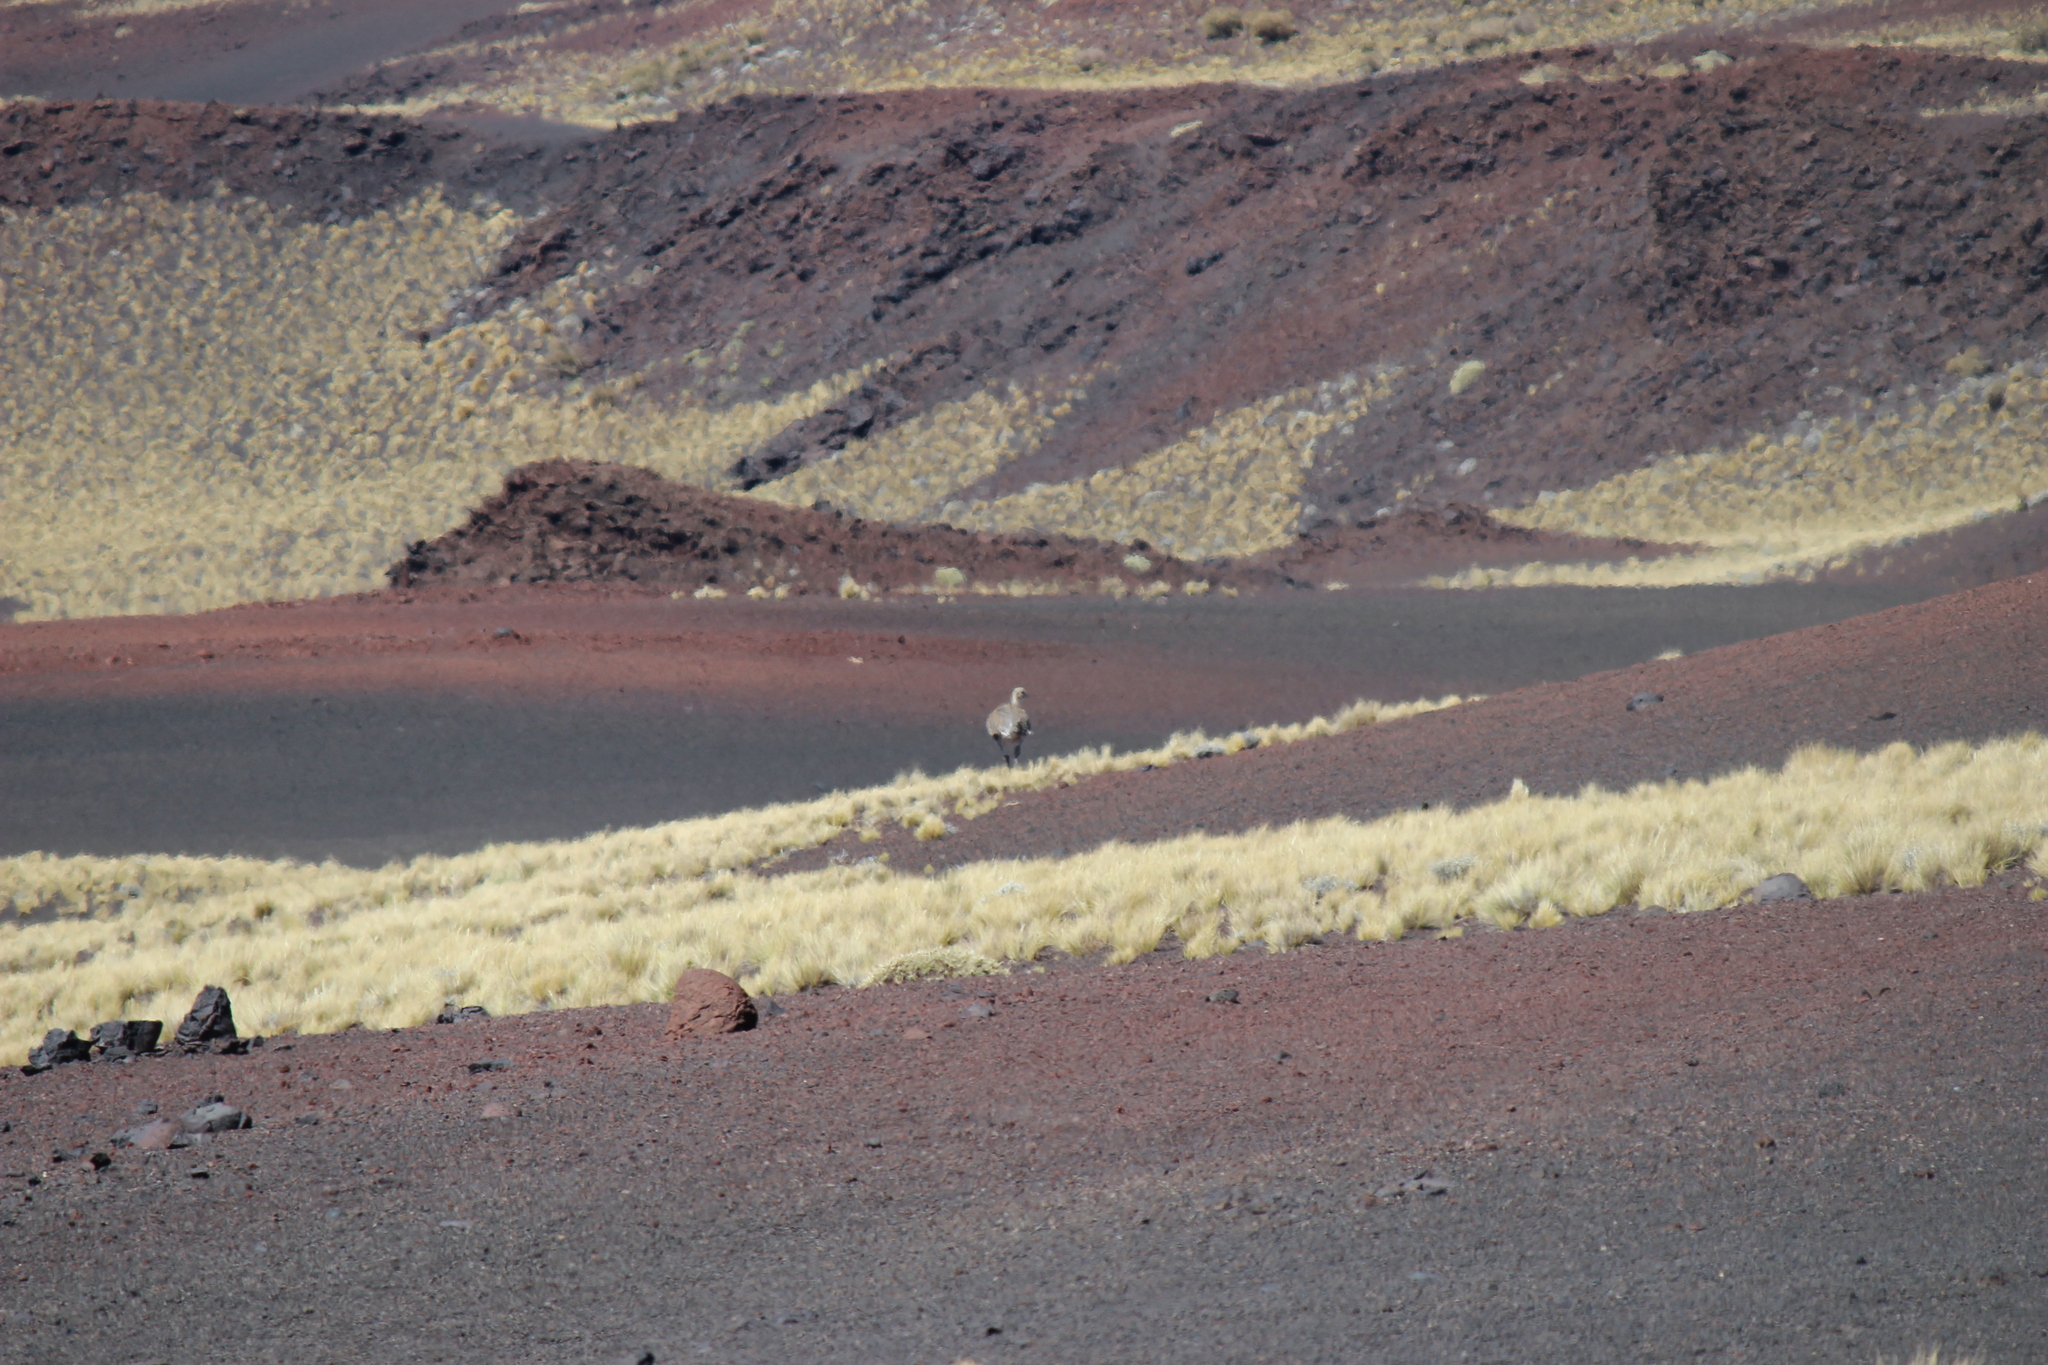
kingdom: Animalia
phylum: Chordata
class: Aves
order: Rheiformes
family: Rheidae
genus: Rhea
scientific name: Rhea pennata
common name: Lesser rhea
